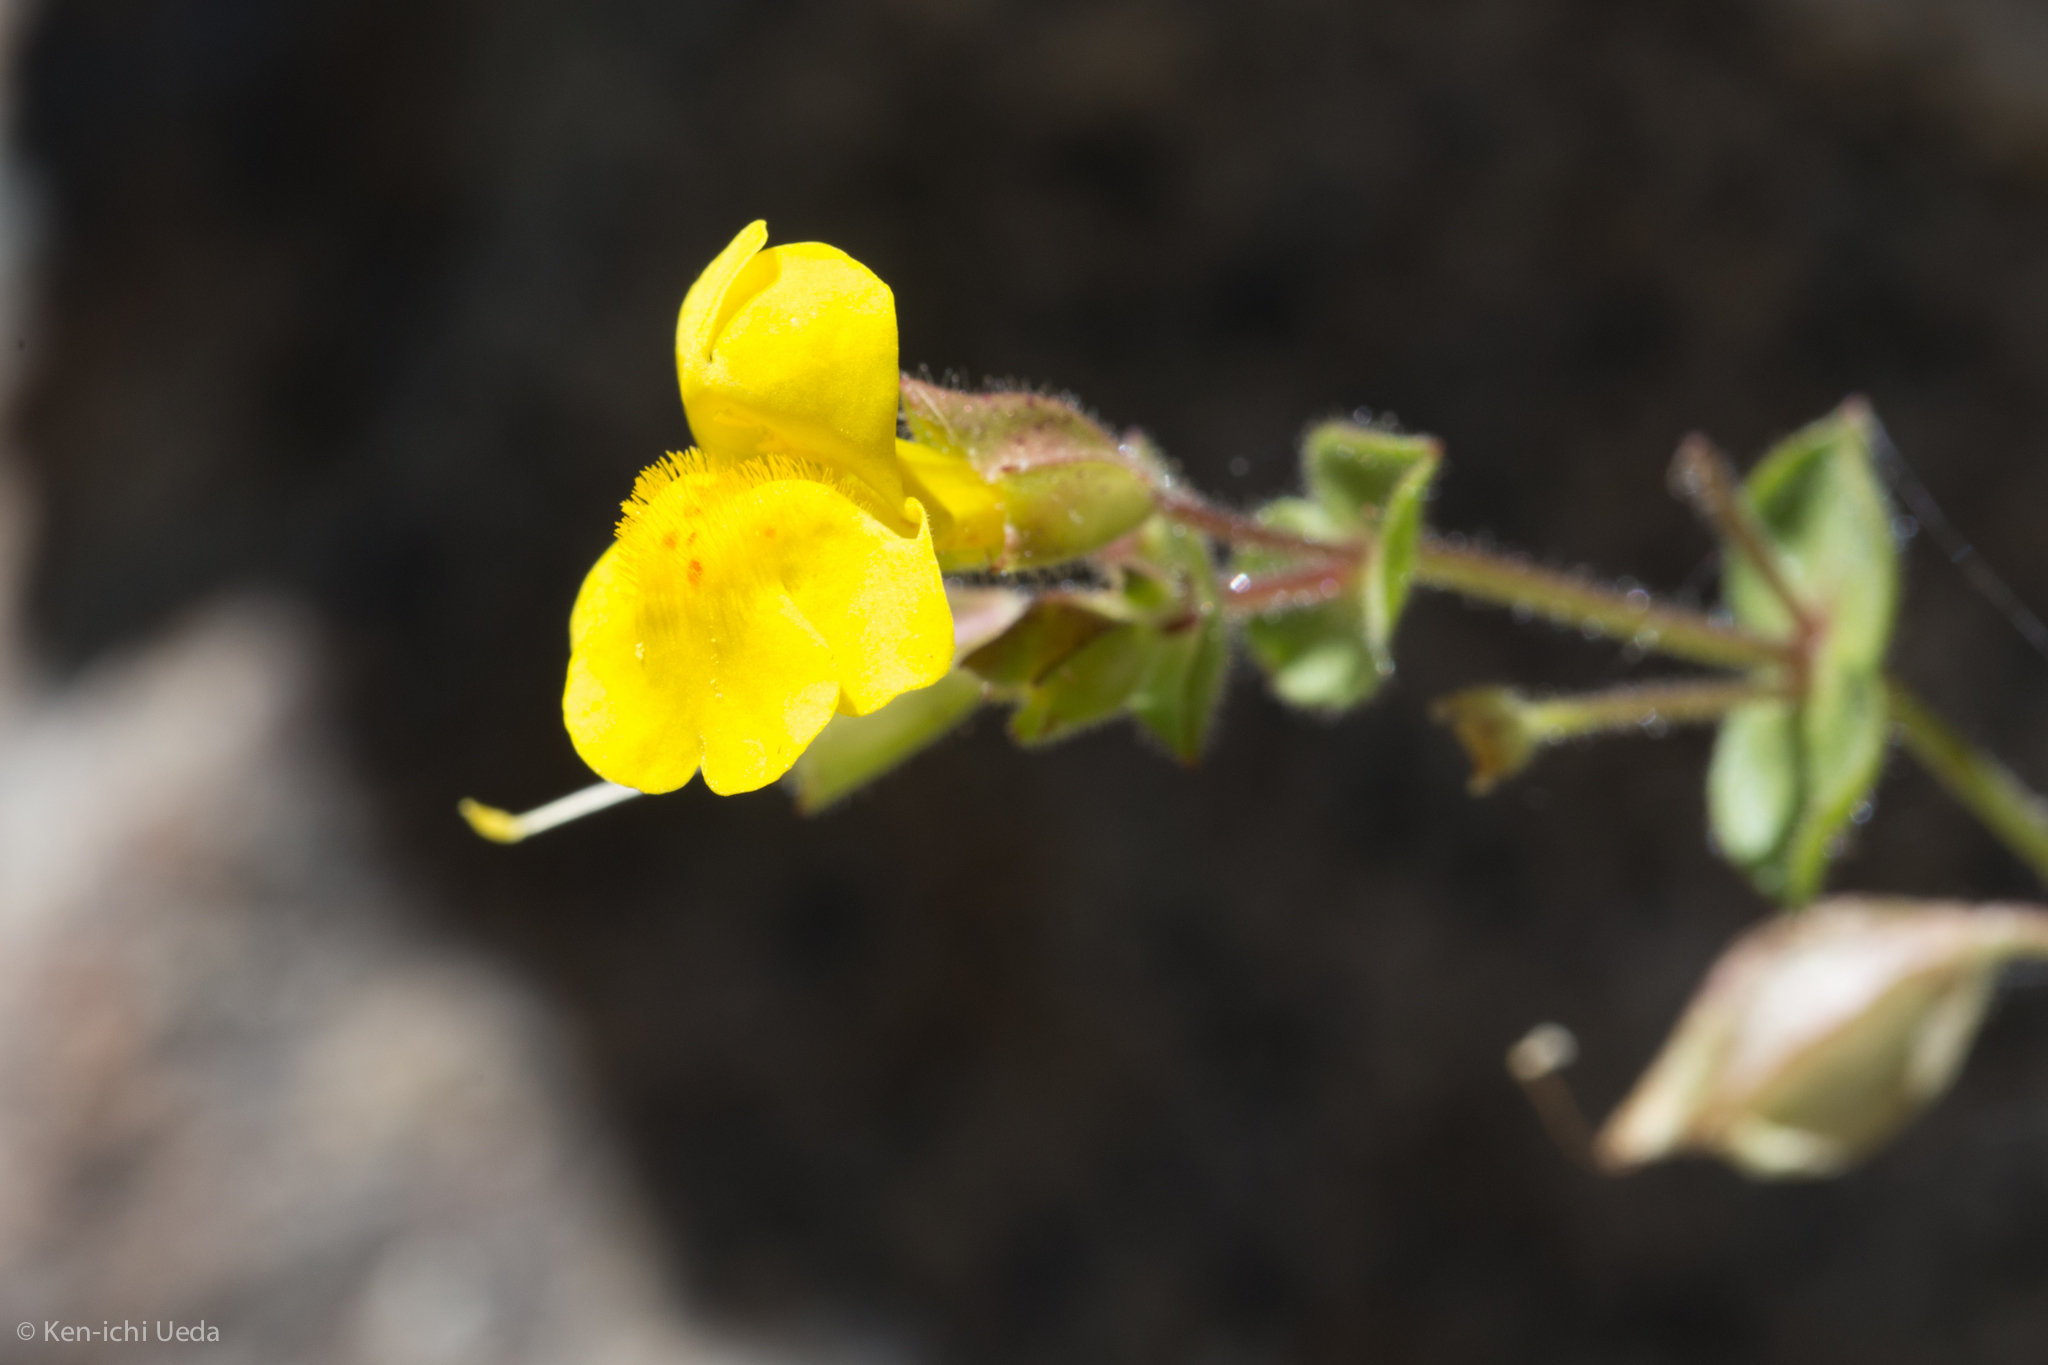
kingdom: Plantae
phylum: Tracheophyta
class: Magnoliopsida
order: Lamiales
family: Phrymaceae
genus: Erythranthe
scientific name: Erythranthe guttata
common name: Monkeyflower
